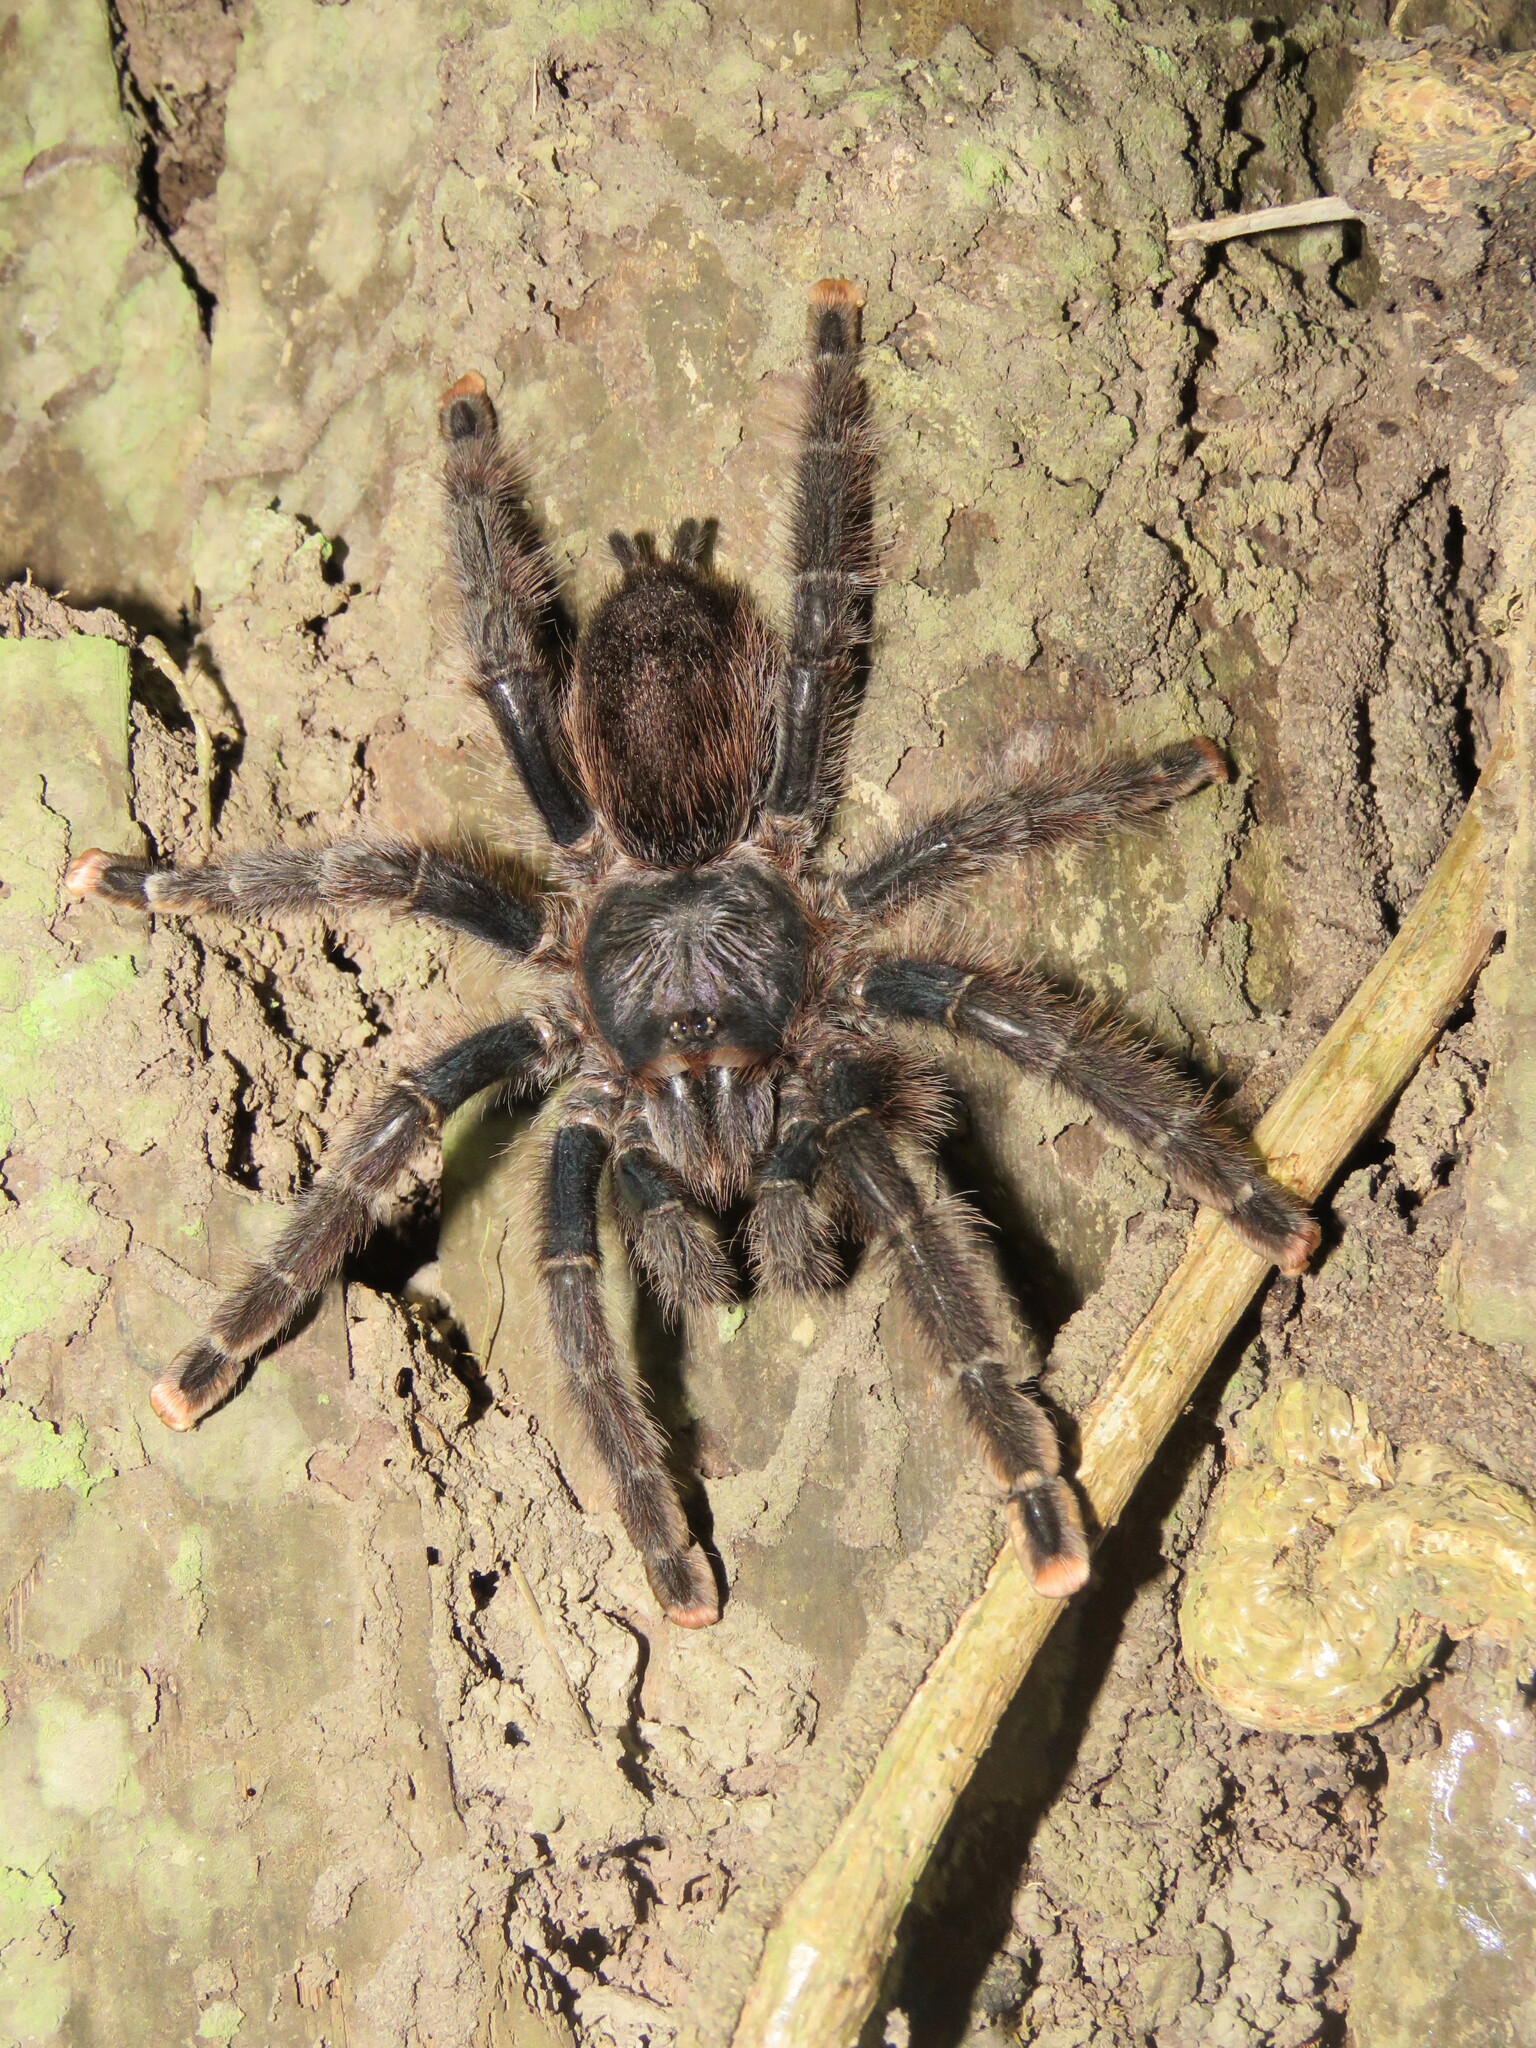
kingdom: Animalia
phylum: Arthropoda
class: Arachnida
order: Araneae
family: Theraphosidae
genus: Avicularia
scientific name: Avicularia avicularia
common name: Tarantula spiders
